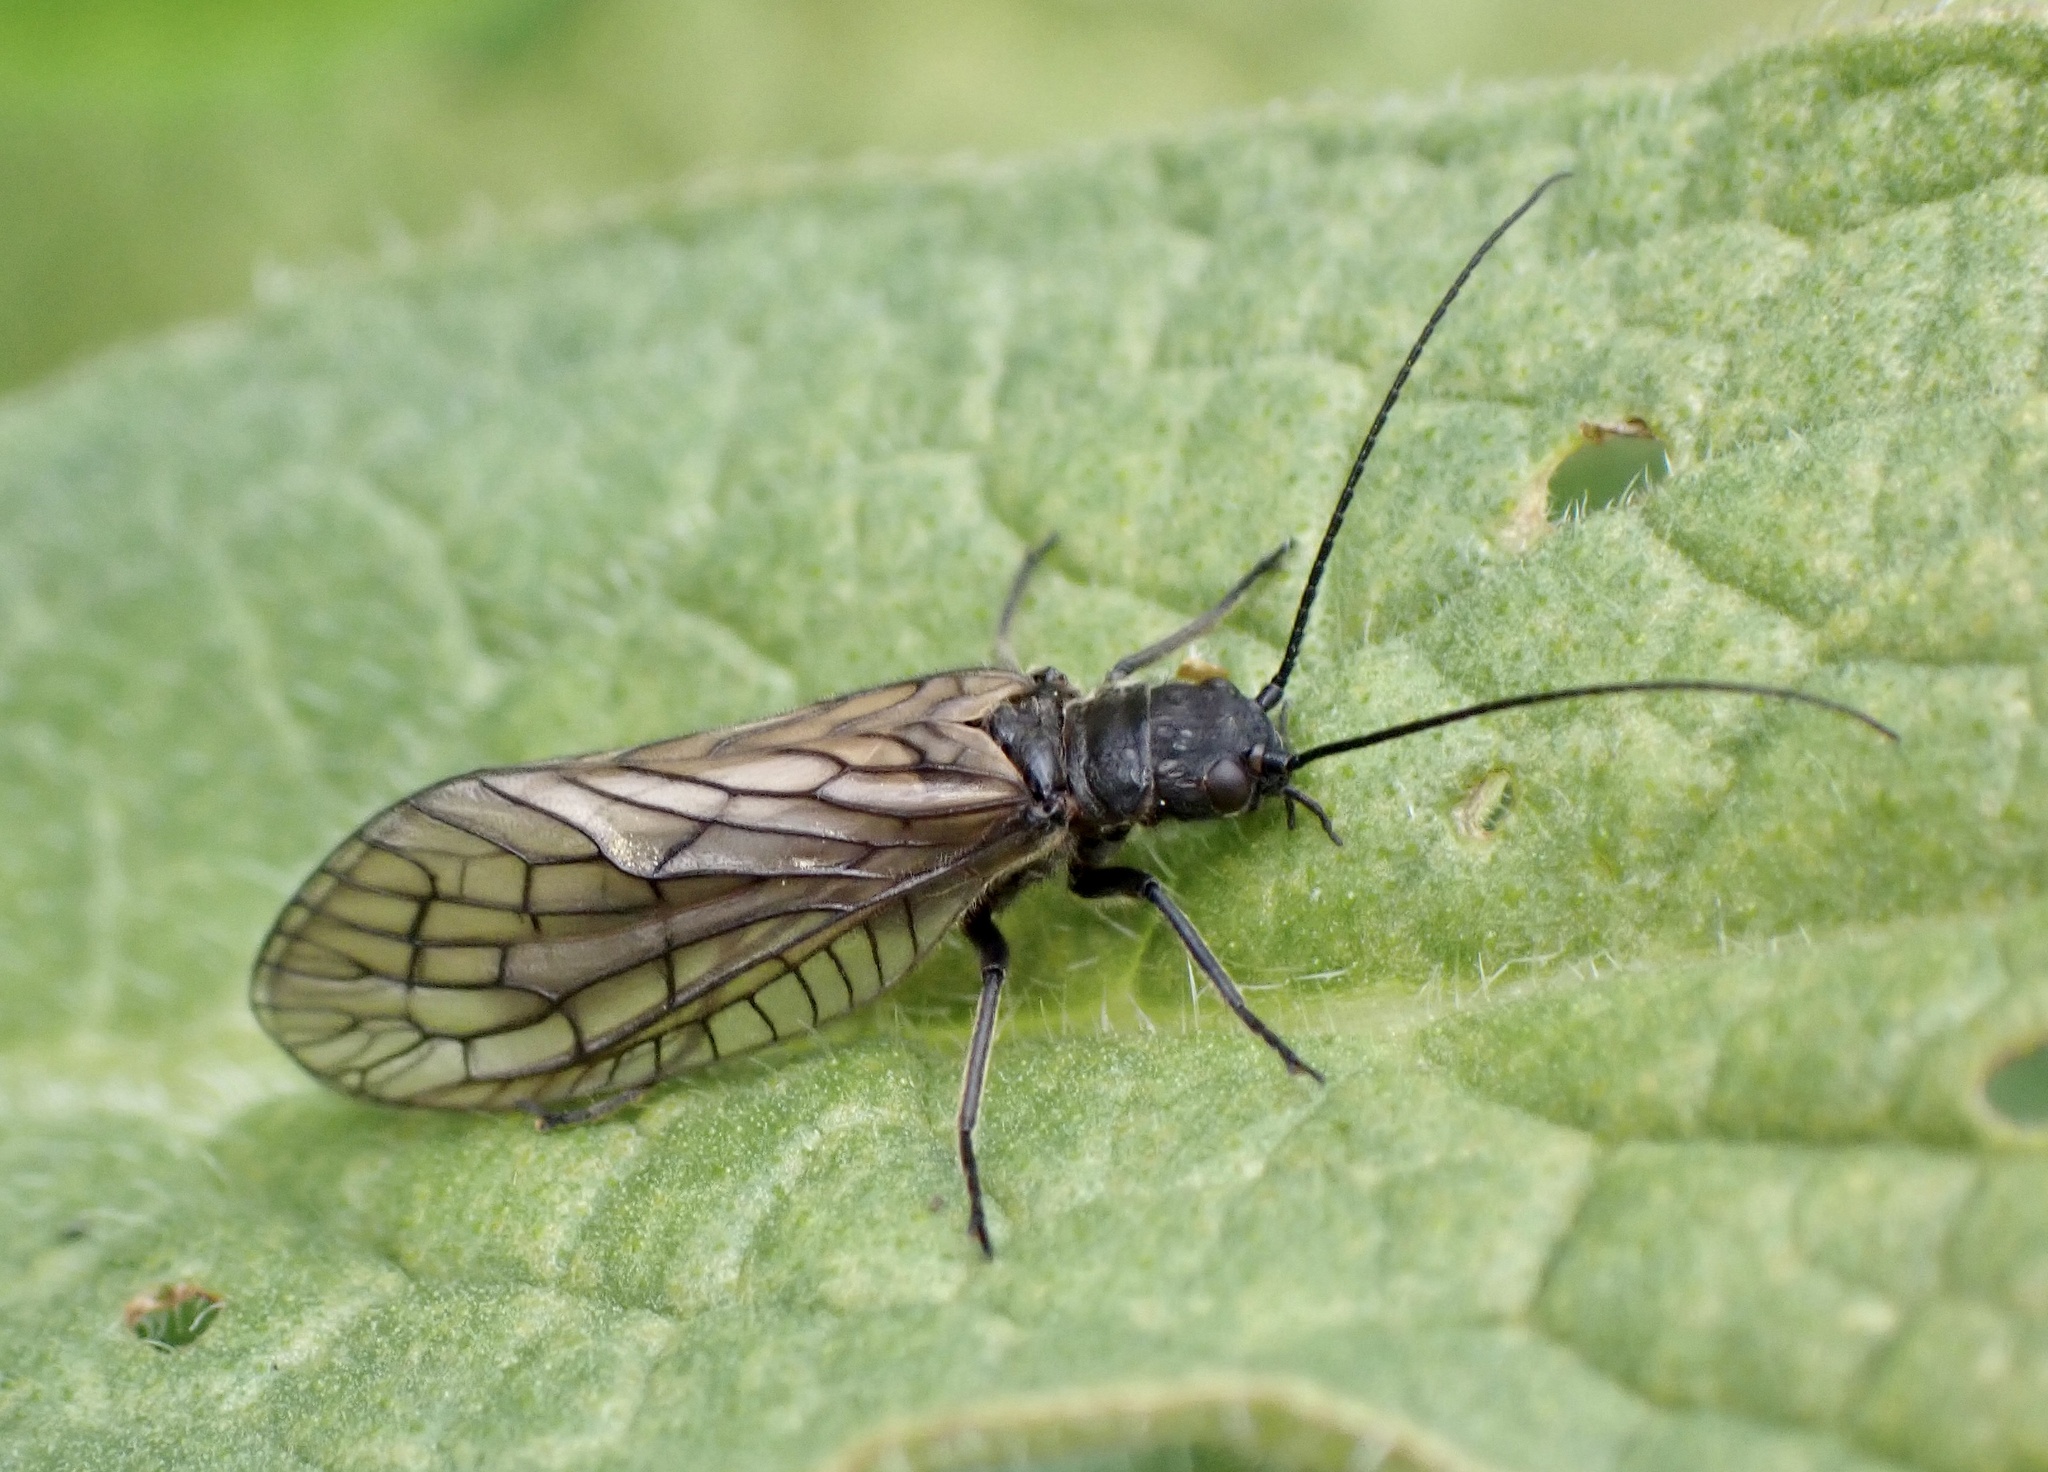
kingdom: Animalia
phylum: Arthropoda
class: Insecta
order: Megaloptera
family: Sialidae
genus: Sialis
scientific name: Sialis
